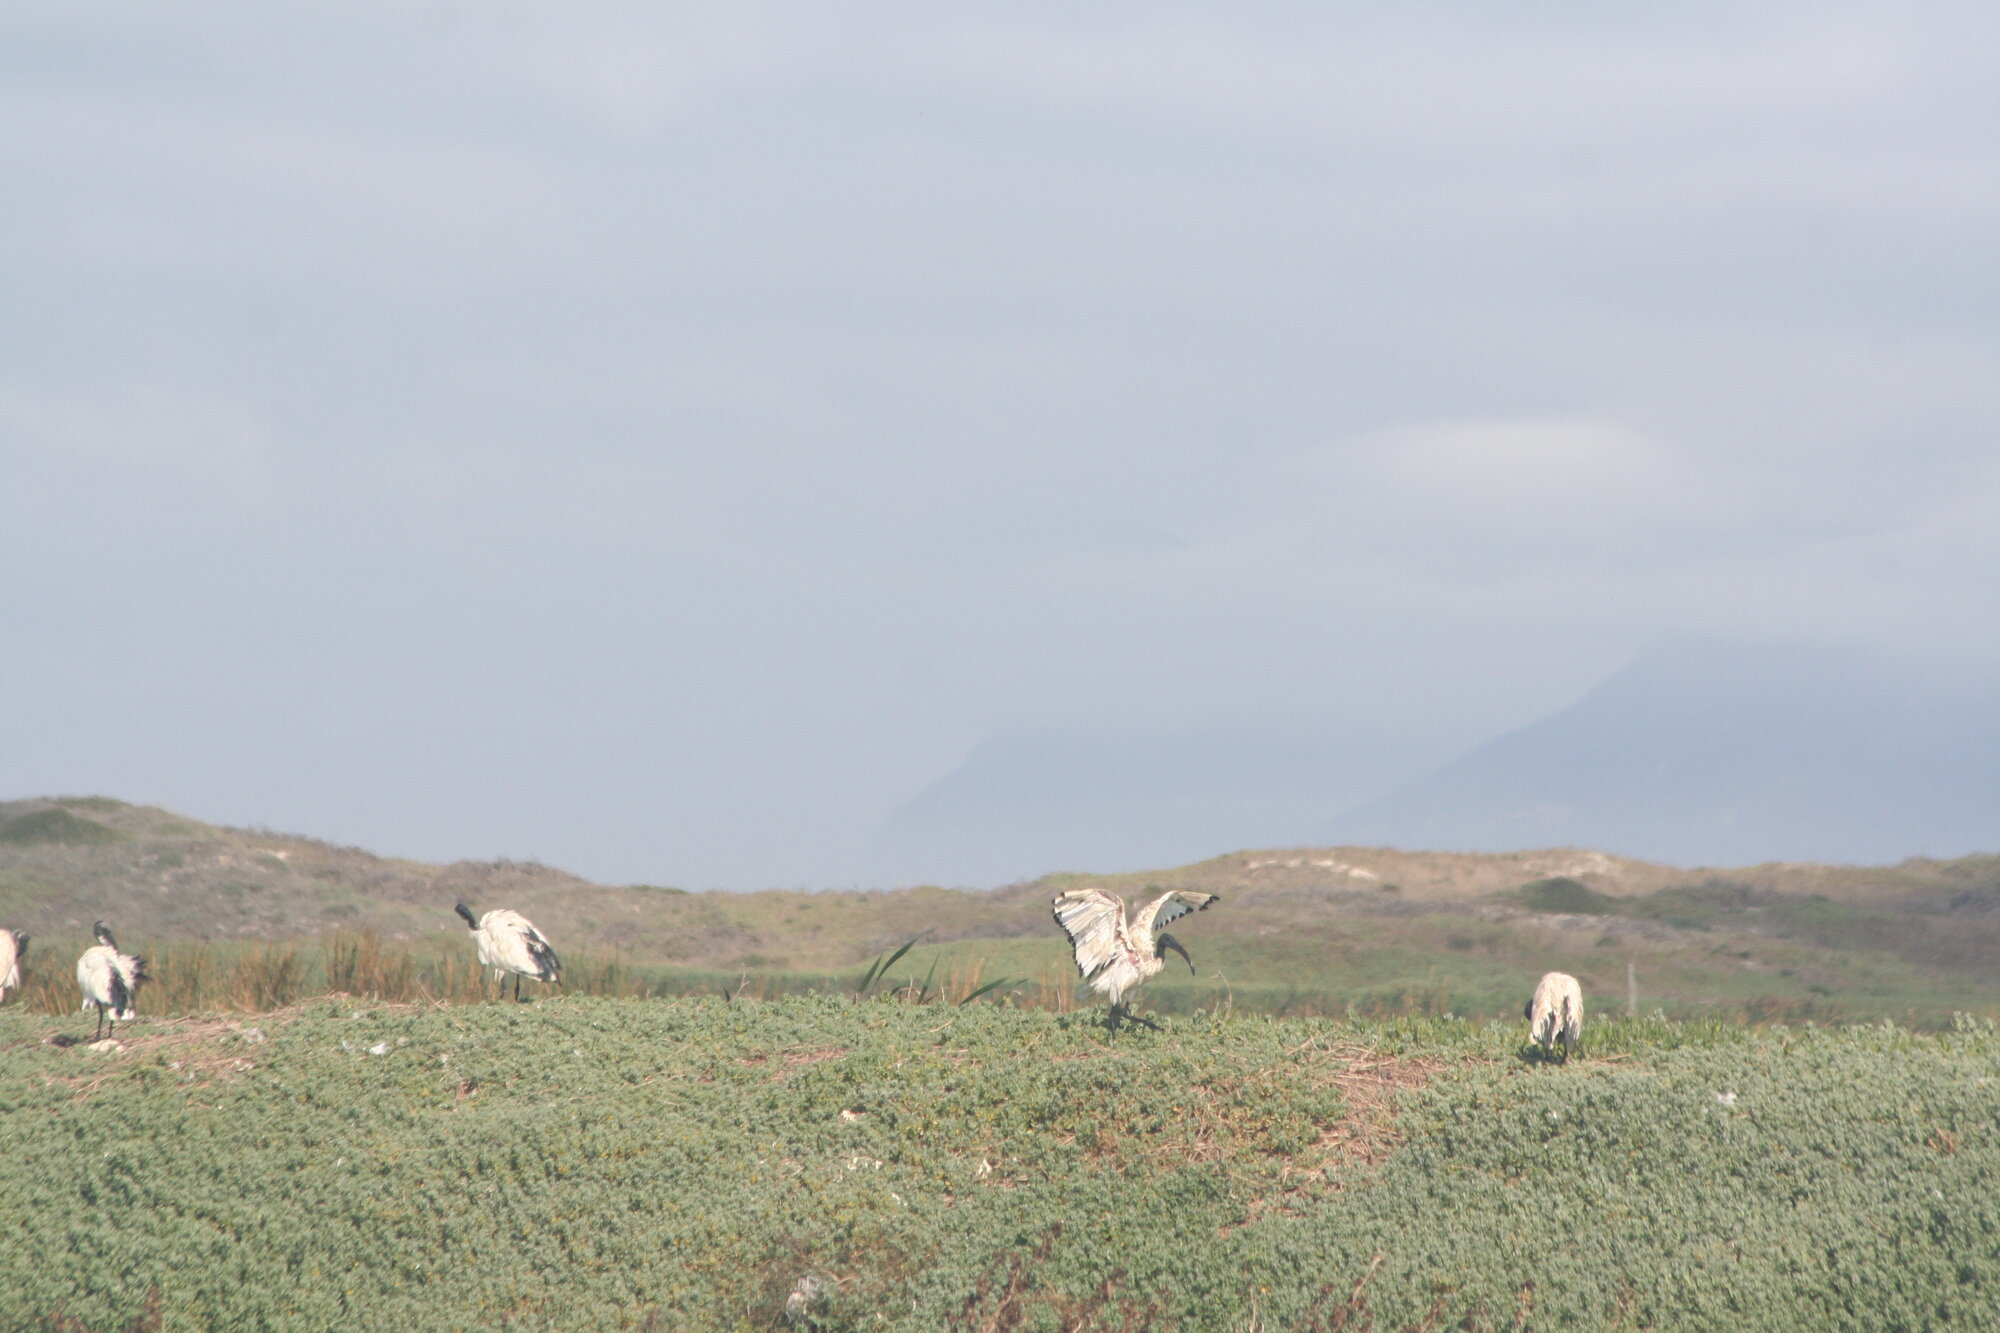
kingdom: Animalia
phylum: Chordata
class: Aves
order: Pelecaniformes
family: Threskiornithidae
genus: Threskiornis
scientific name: Threskiornis aethiopicus
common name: Sacred ibis
